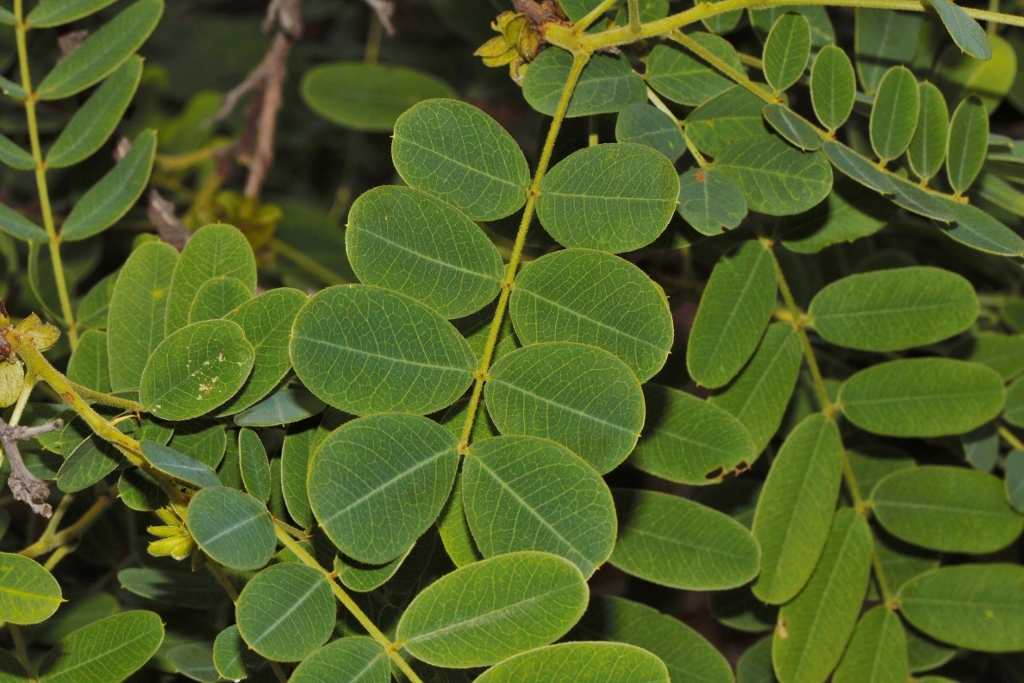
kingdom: Plantae
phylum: Tracheophyta
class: Magnoliopsida
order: Fabales
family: Fabaceae
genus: Senna
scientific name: Senna singueana
